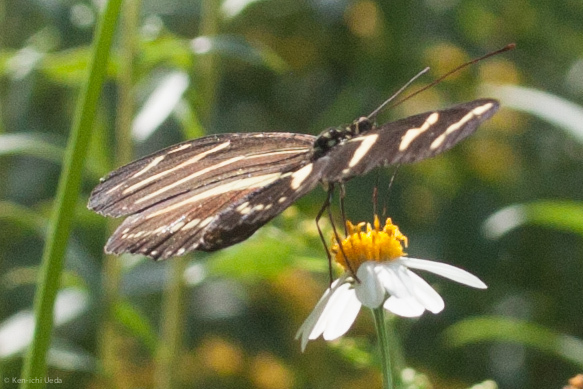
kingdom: Animalia
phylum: Arthropoda
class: Insecta
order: Lepidoptera
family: Nymphalidae
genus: Heliconius
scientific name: Heliconius charithonia
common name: Zebra long wing
